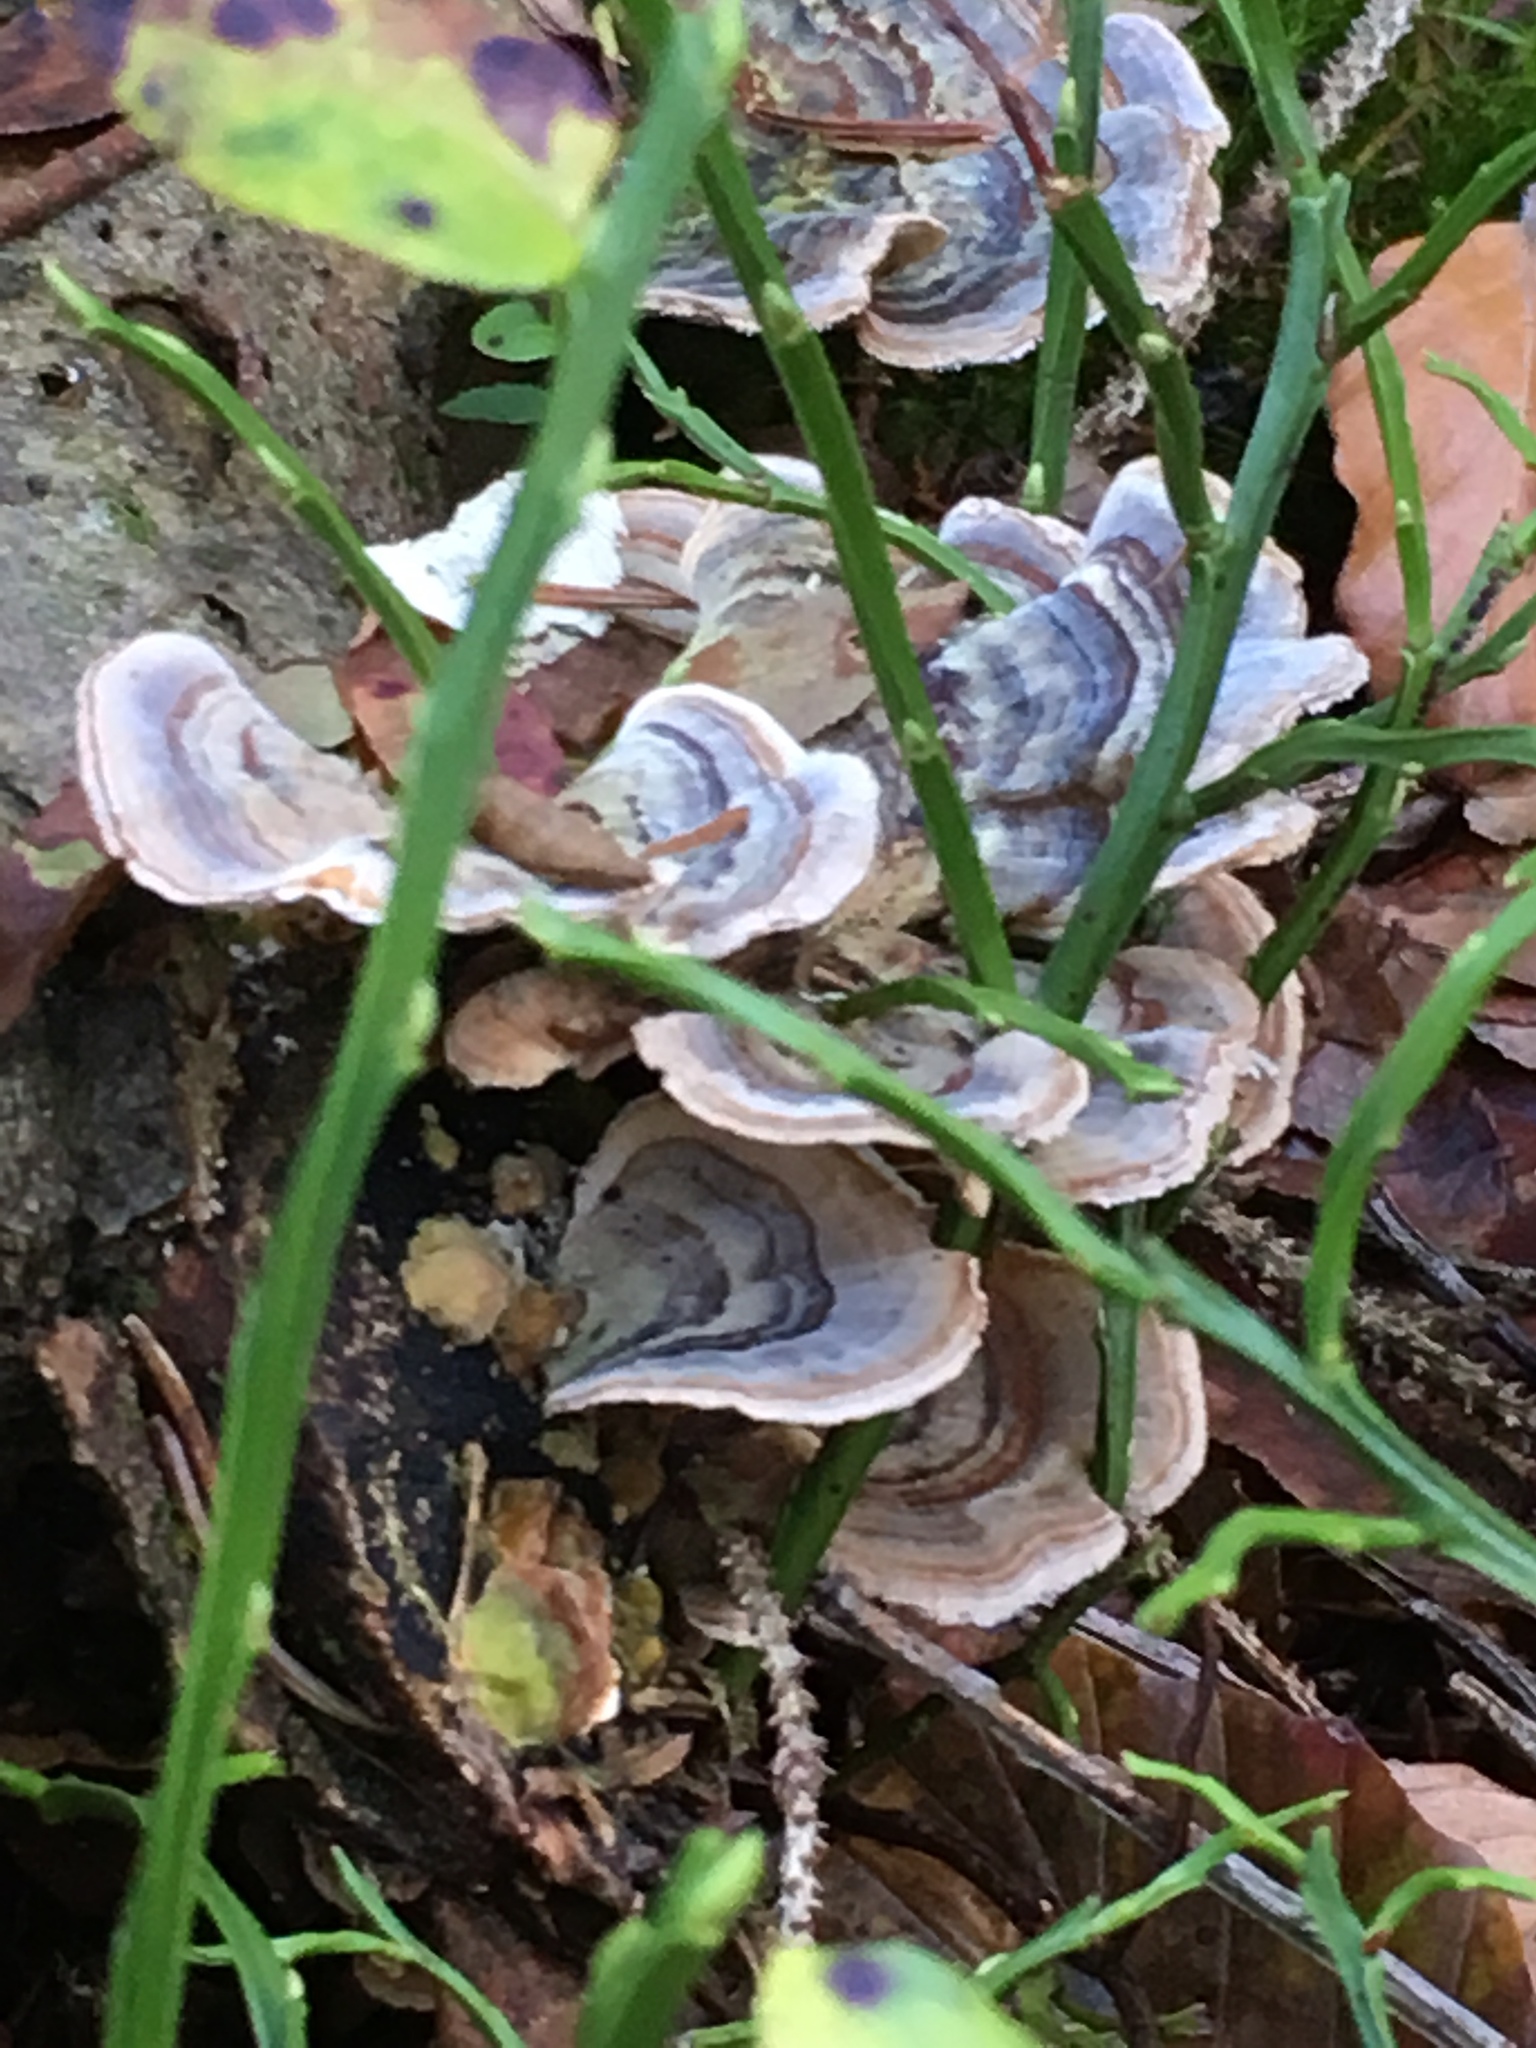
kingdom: Fungi
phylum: Basidiomycota
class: Agaricomycetes
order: Polyporales
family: Polyporaceae
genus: Trametes
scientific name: Trametes versicolor
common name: Turkeytail
